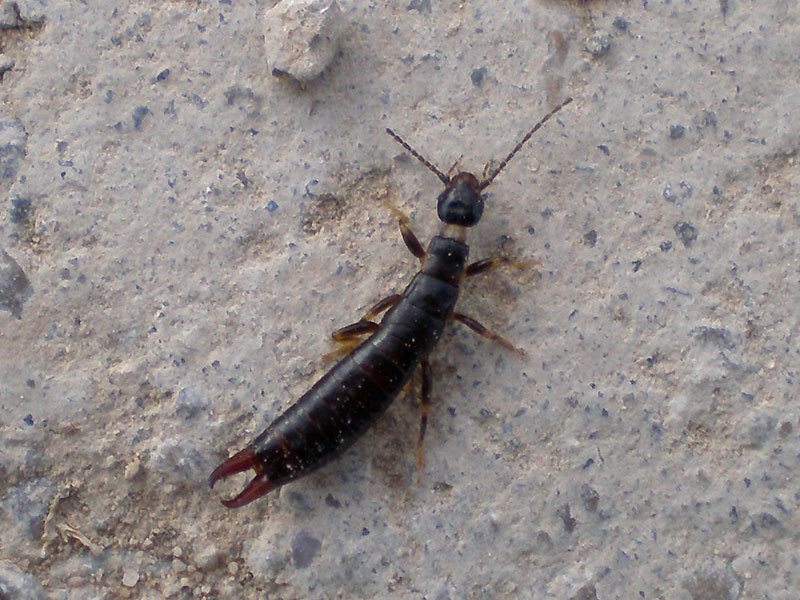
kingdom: Animalia
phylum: Arthropoda
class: Insecta
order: Dermaptera
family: Anisolabididae
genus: Euborellia
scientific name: Euborellia moesta
